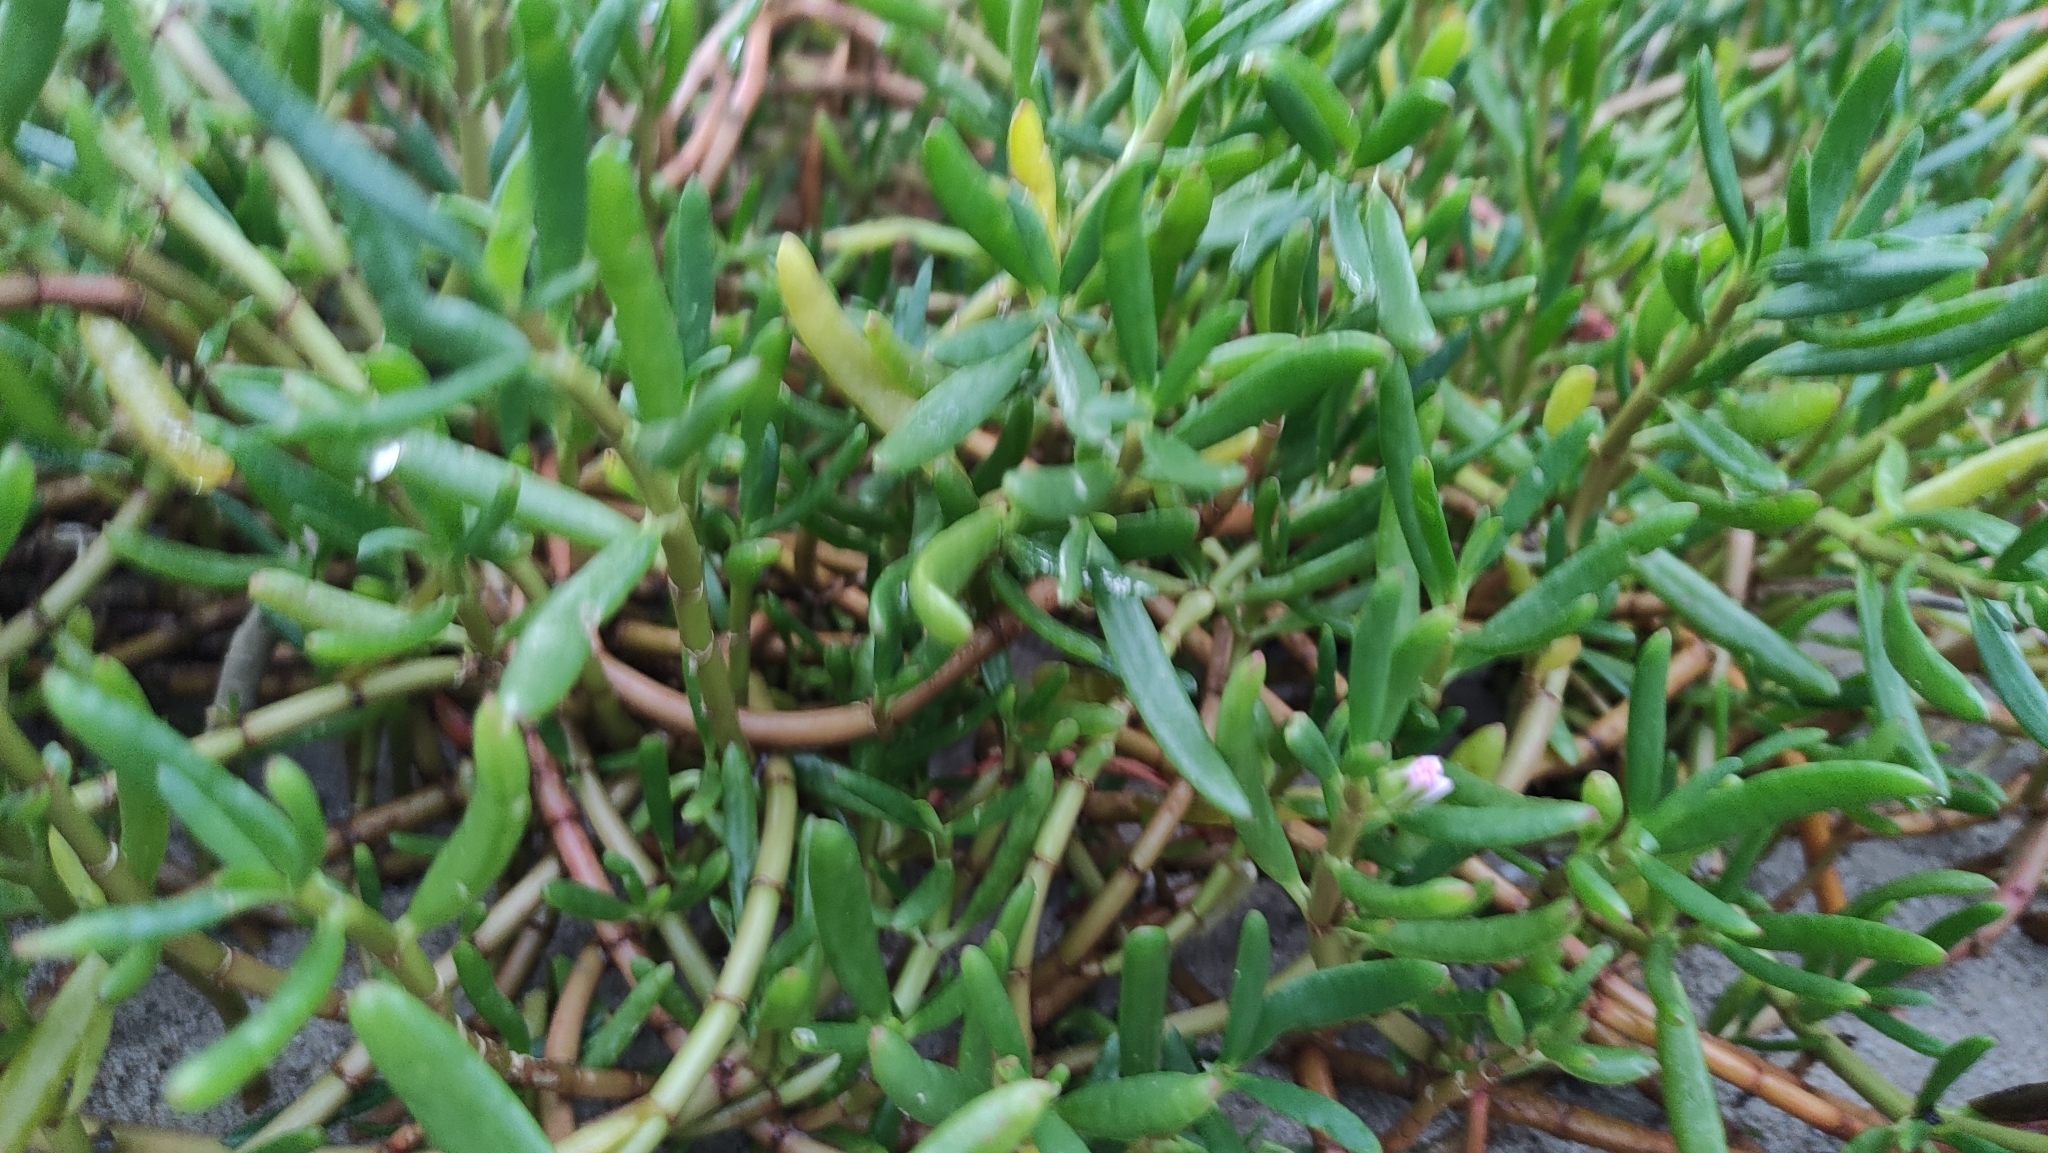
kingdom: Plantae
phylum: Tracheophyta
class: Magnoliopsida
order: Caryophyllales
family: Aizoaceae
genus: Sesuvium
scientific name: Sesuvium portulacastrum
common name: Sea-purslane
